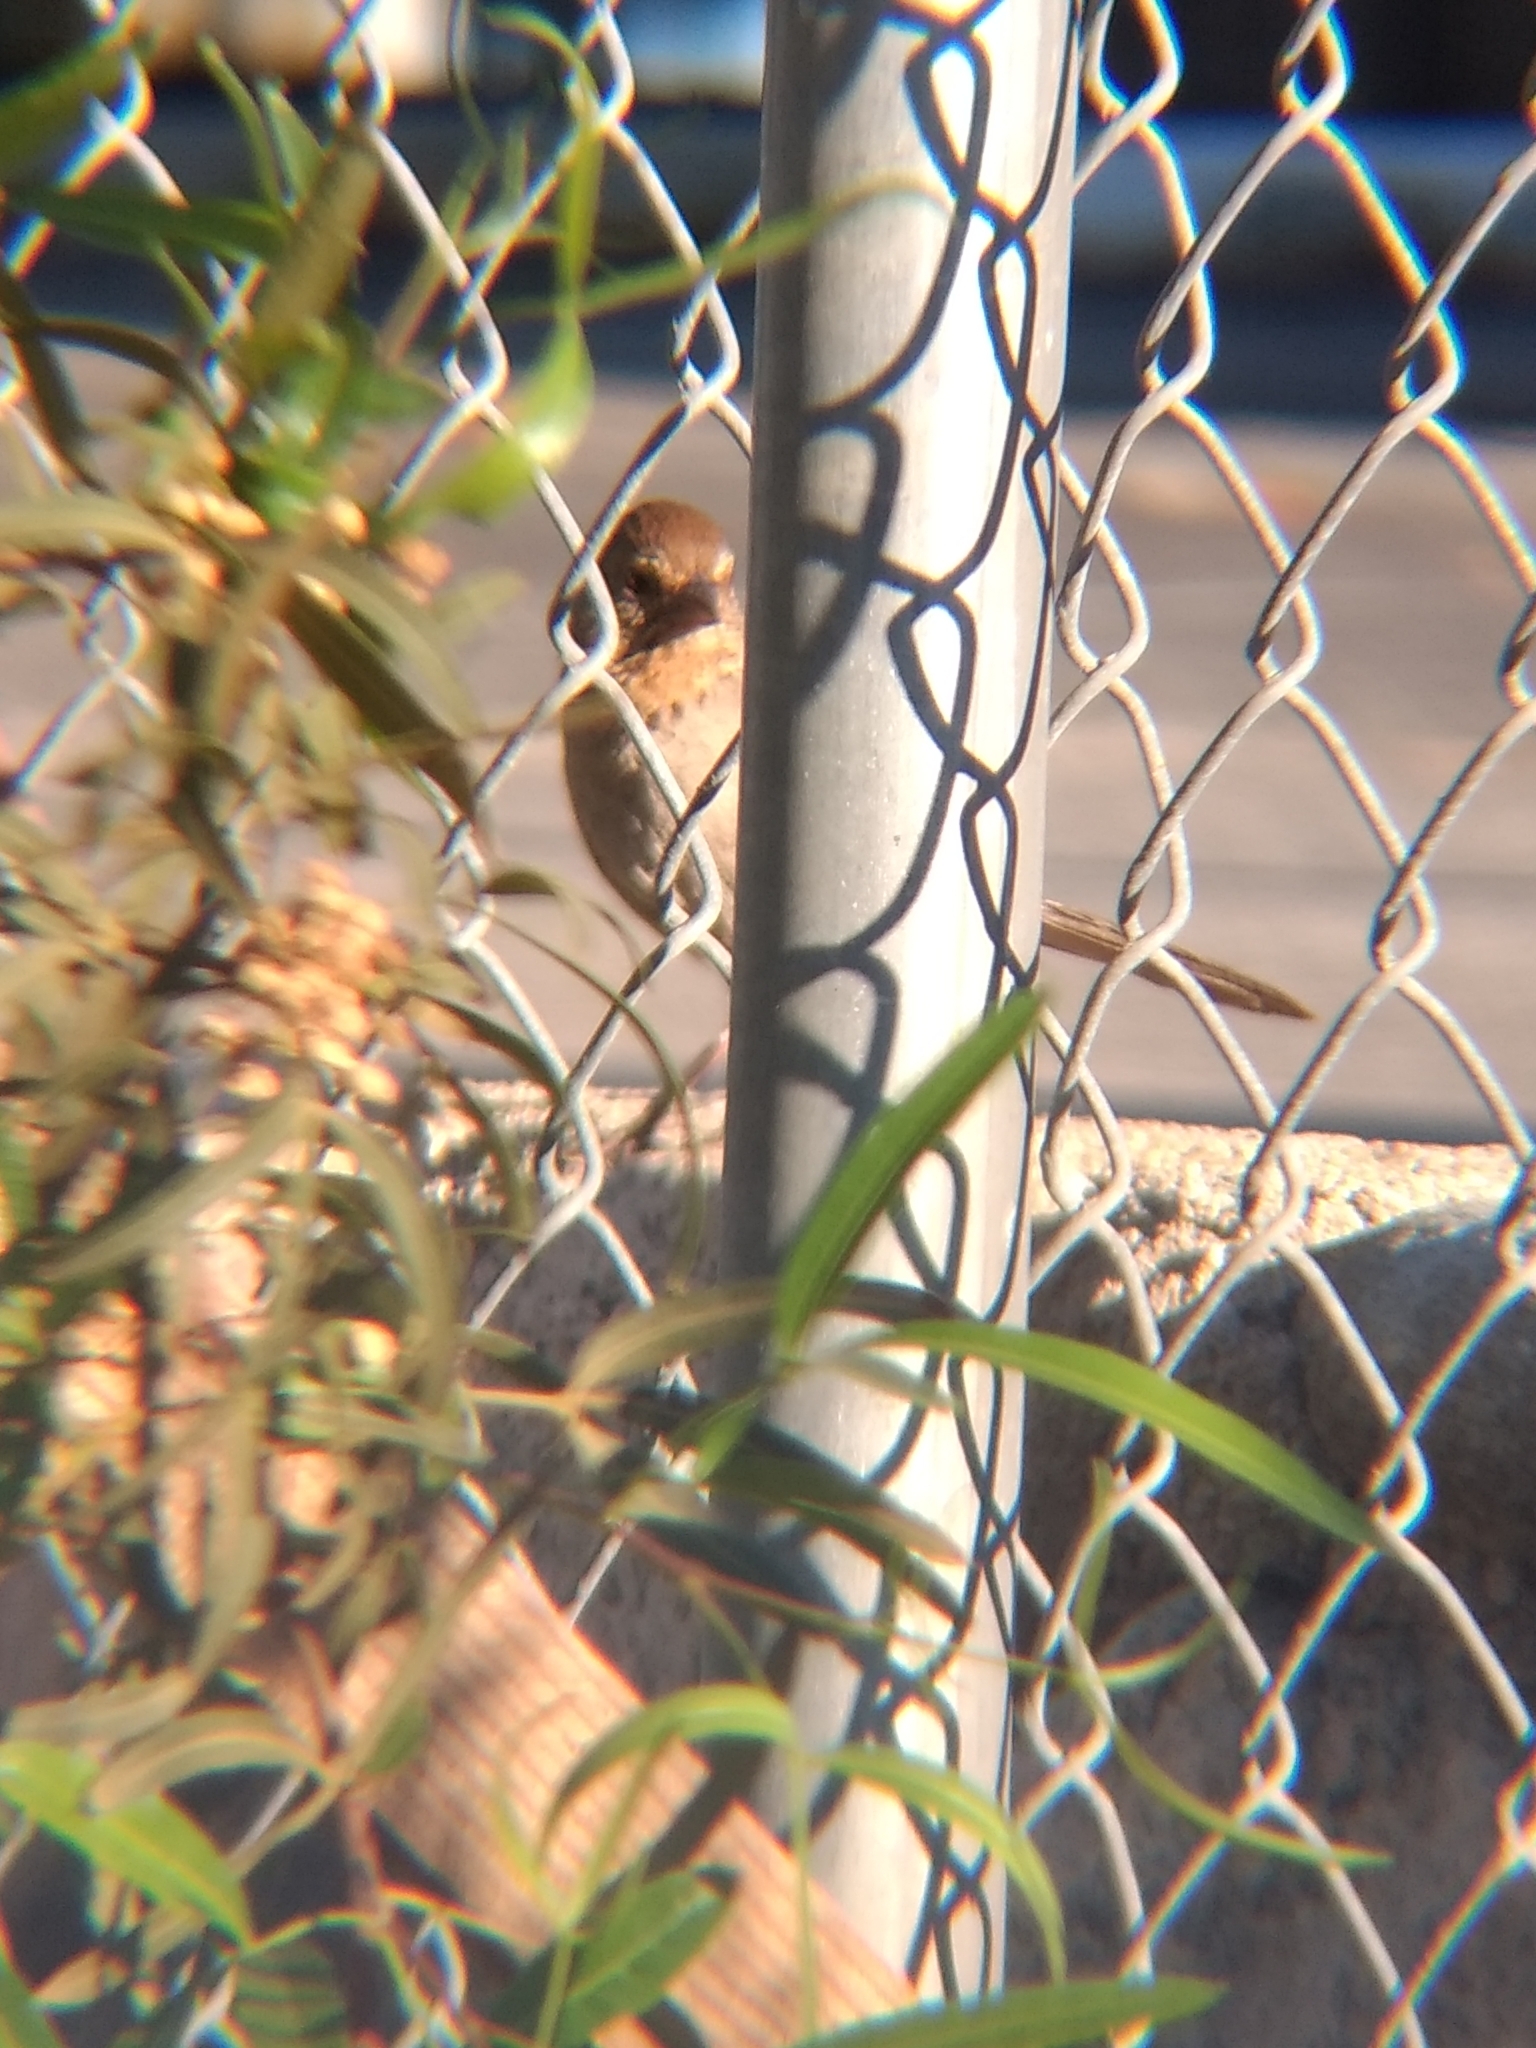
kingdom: Animalia
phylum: Chordata
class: Aves
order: Passeriformes
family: Passerellidae
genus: Melozone
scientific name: Melozone crissalis
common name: California towhee
